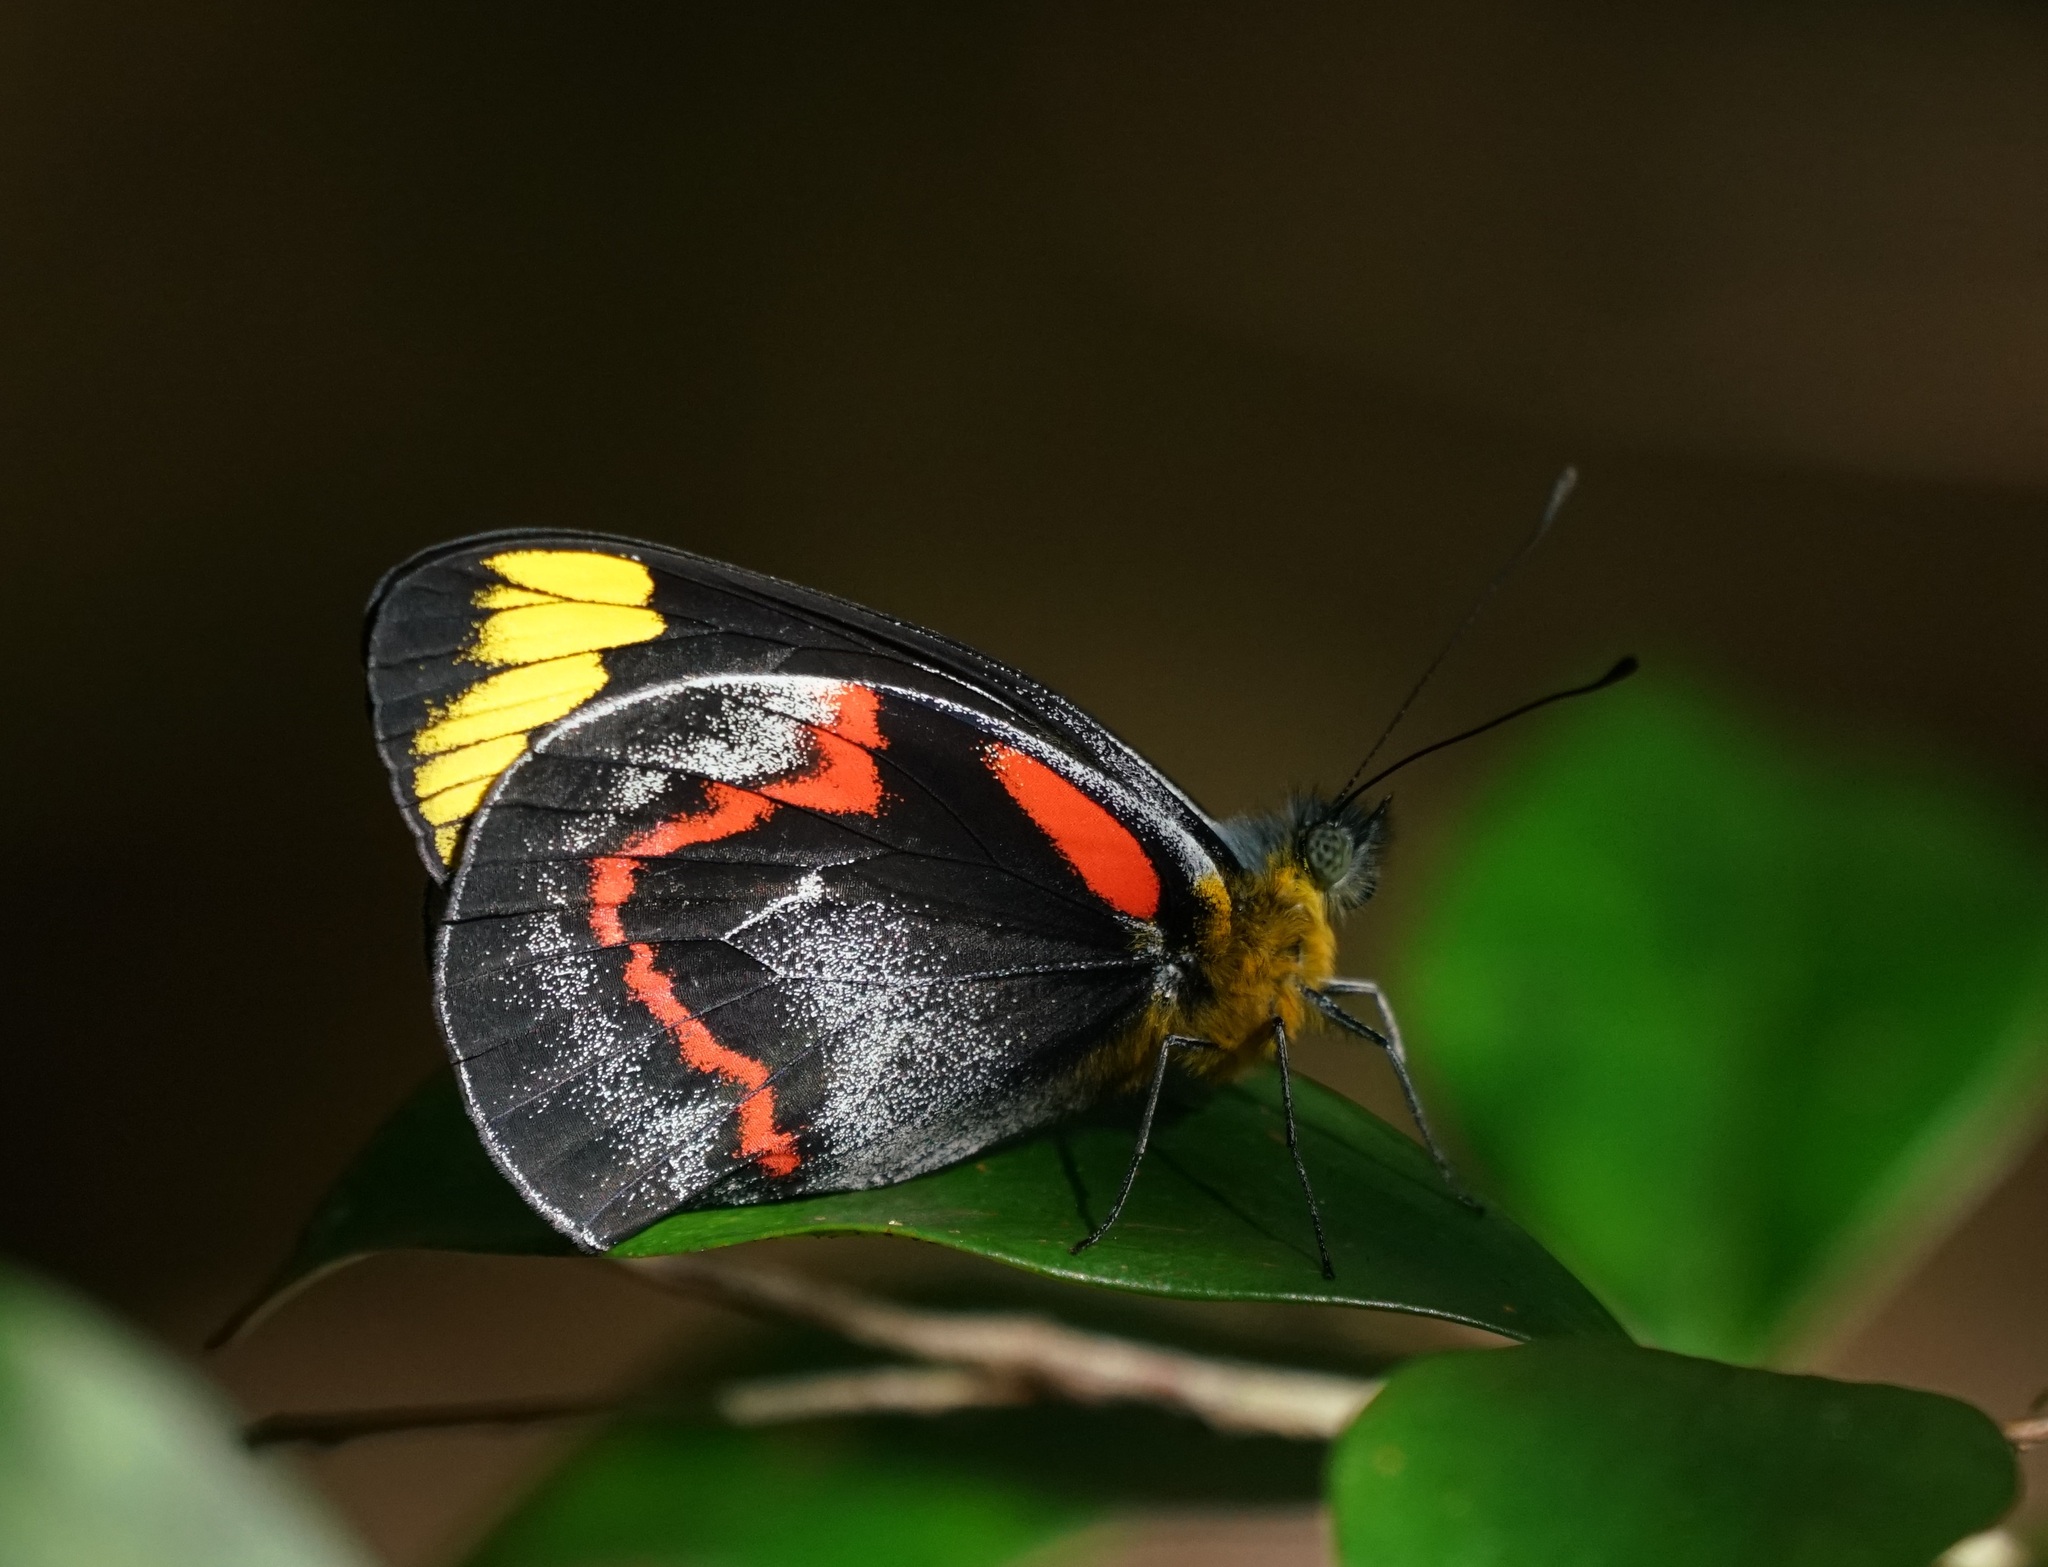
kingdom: Animalia
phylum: Arthropoda
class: Insecta
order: Lepidoptera
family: Pieridae
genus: Delias
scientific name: Delias nigrina
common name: Black jezebel
